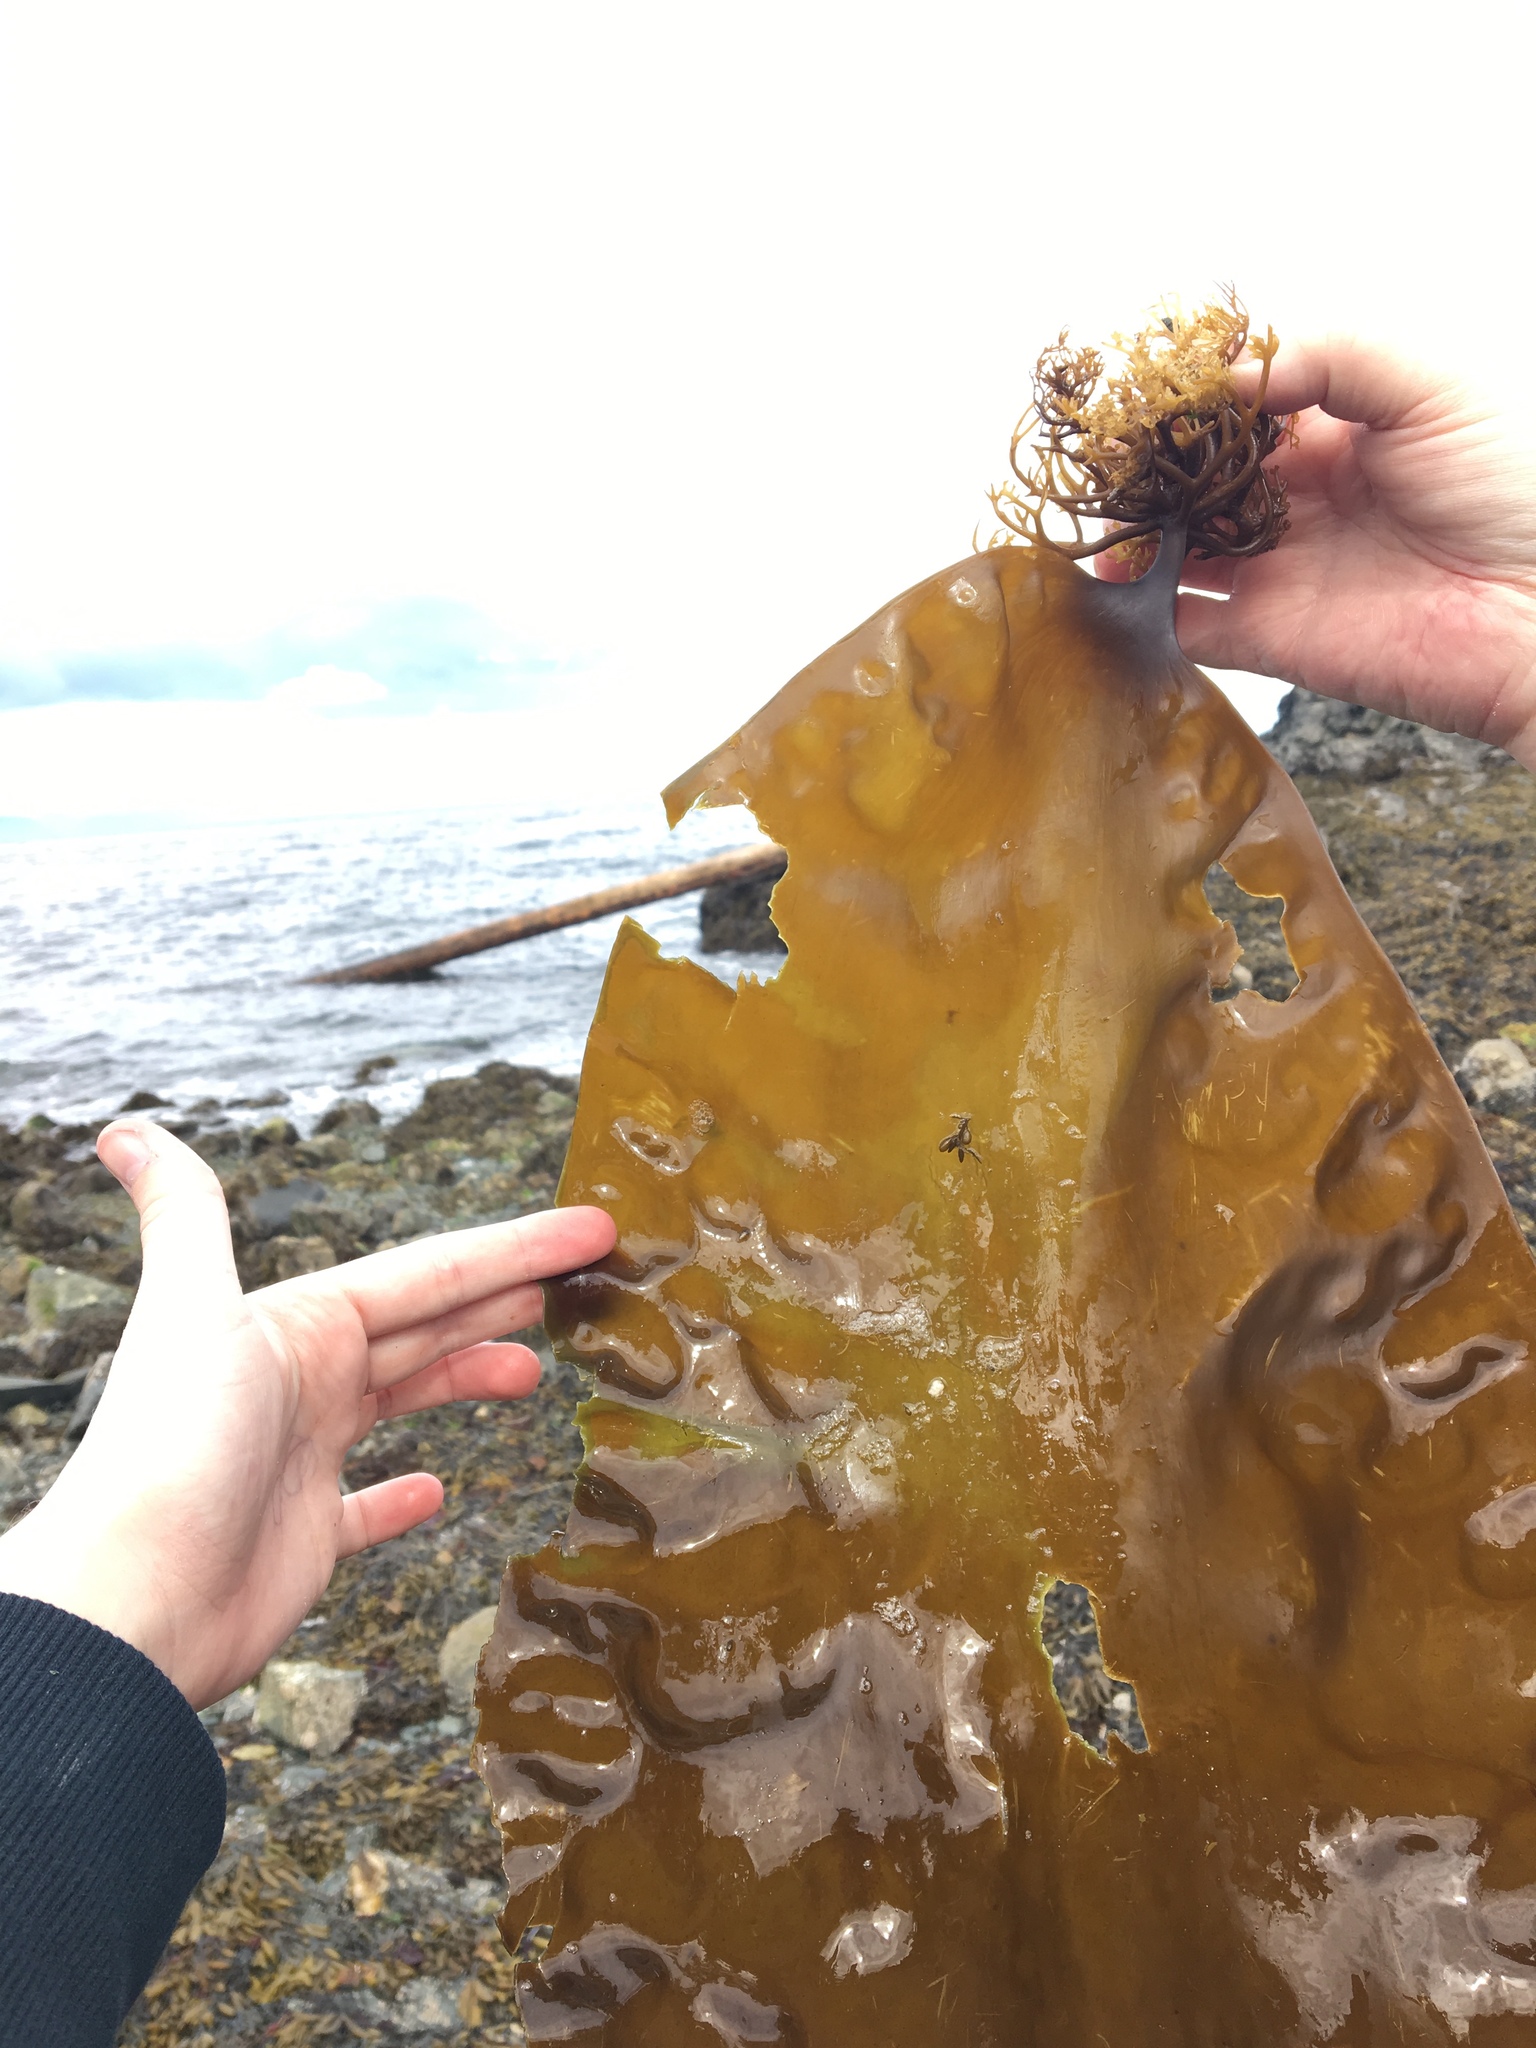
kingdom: Chromista
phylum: Ochrophyta
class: Phaeophyceae
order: Laminariales
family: Laminariaceae
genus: Saccharina
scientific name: Saccharina latissima
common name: Poor man's weather glass
